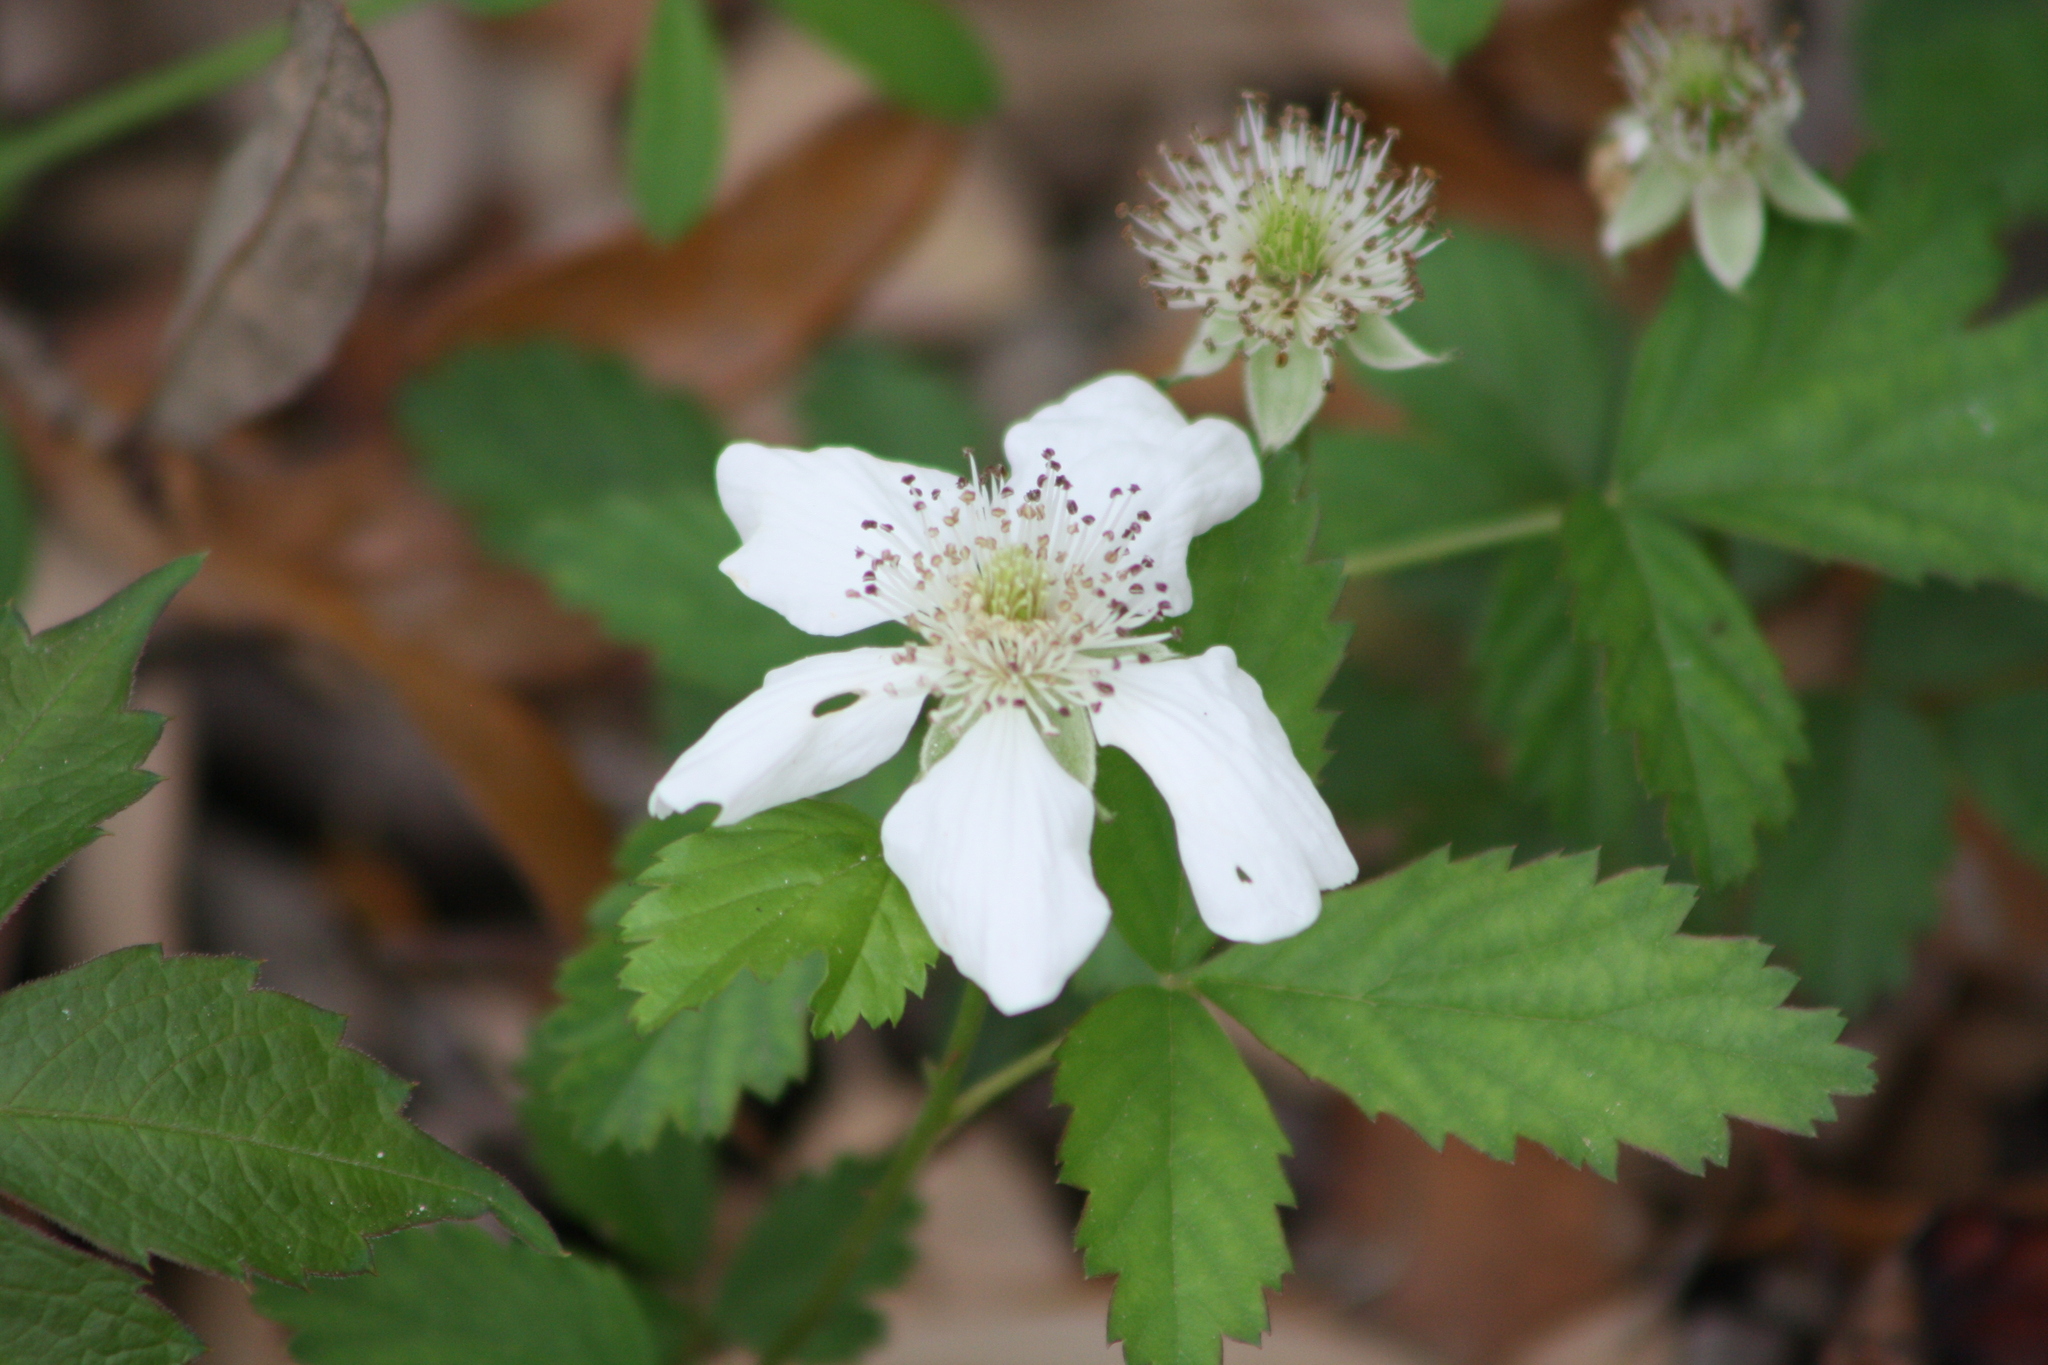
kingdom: Plantae
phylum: Tracheophyta
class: Magnoliopsida
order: Rosales
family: Rosaceae
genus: Rubus
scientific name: Rubus trivialis
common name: Southern dewberry
